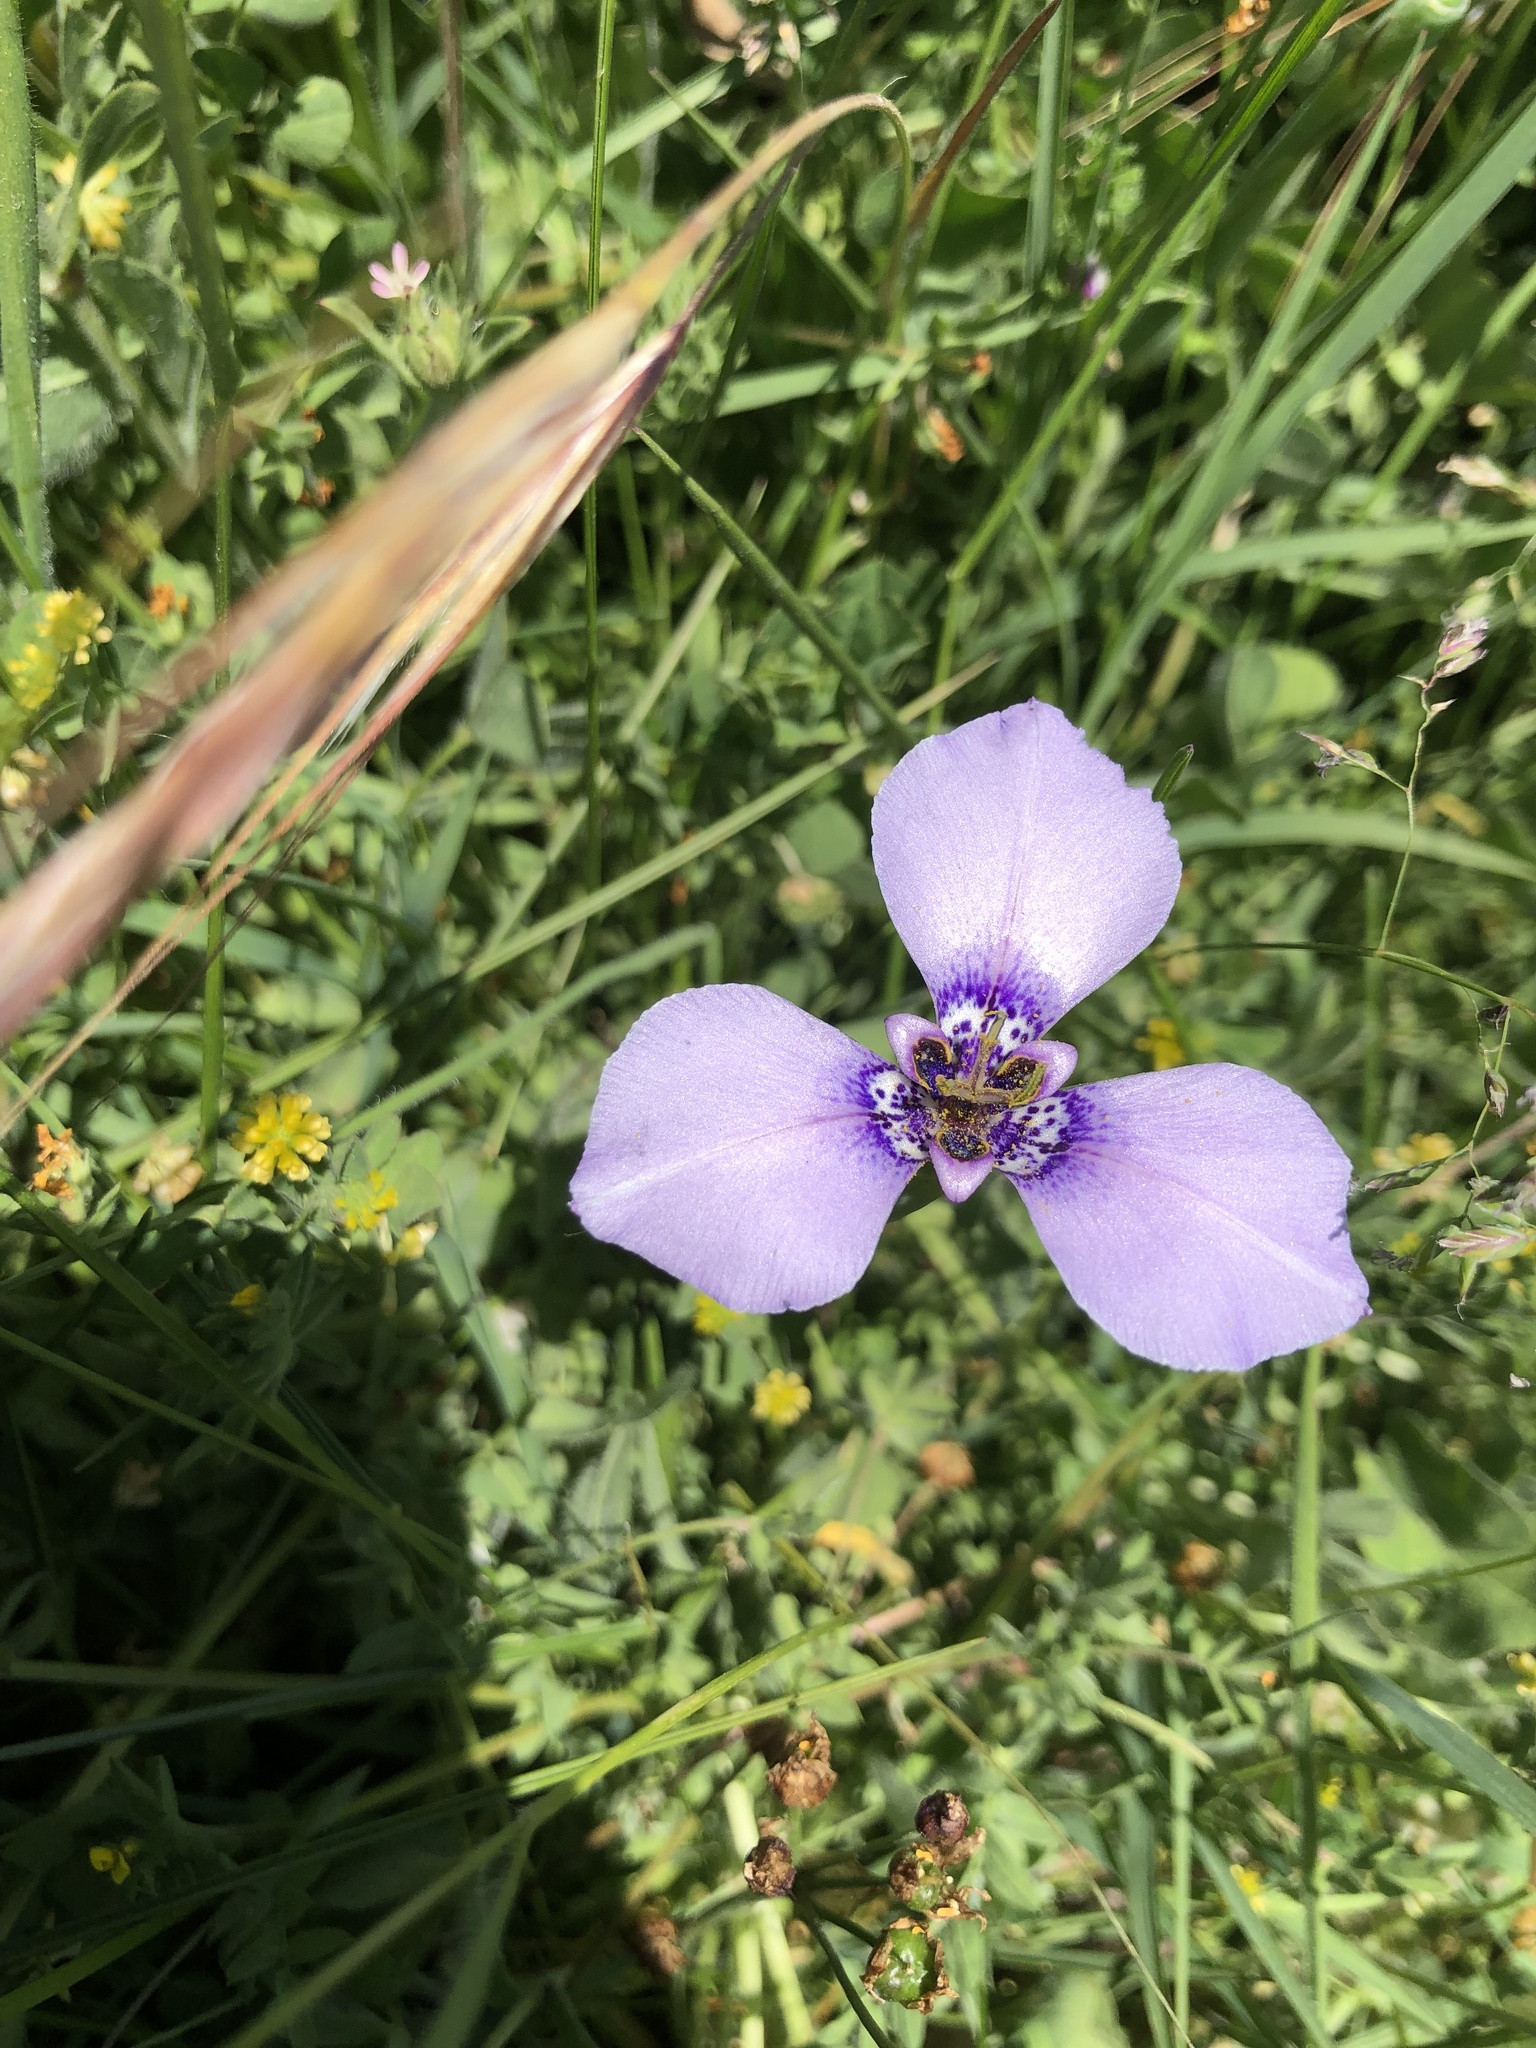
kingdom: Plantae
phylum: Tracheophyta
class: Liliopsida
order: Asparagales
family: Iridaceae
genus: Herbertia
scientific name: Herbertia lahue
